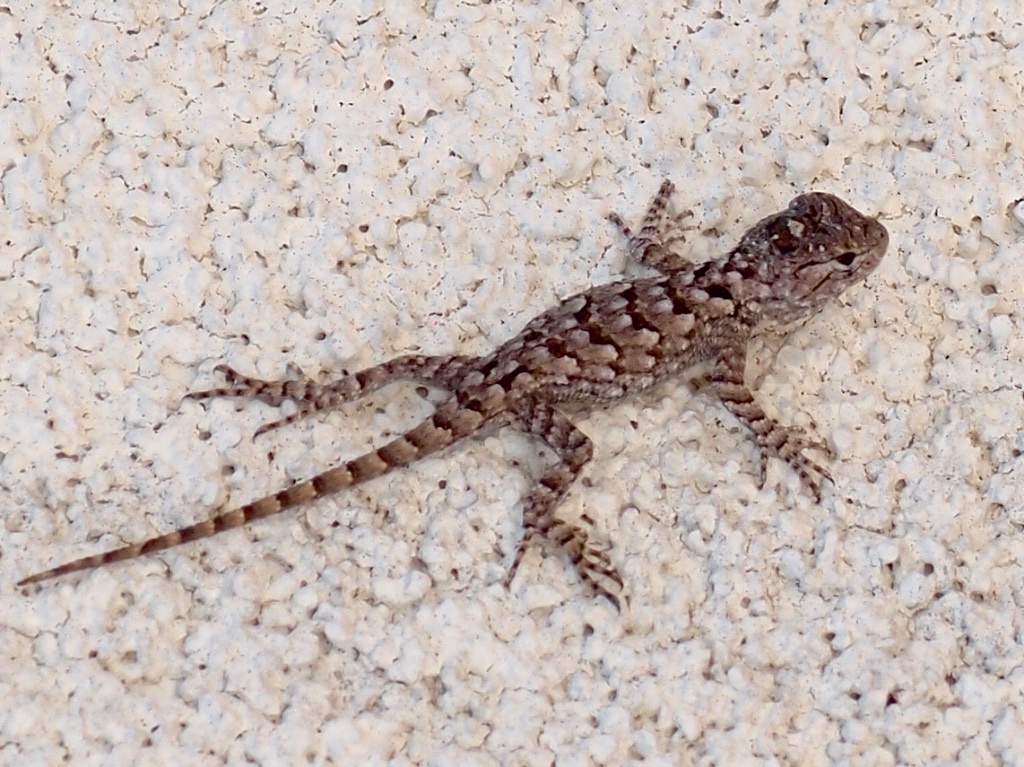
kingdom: Animalia
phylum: Chordata
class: Squamata
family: Phrynosomatidae
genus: Sceloporus
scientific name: Sceloporus clarkii
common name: Clark's spiny lizard
